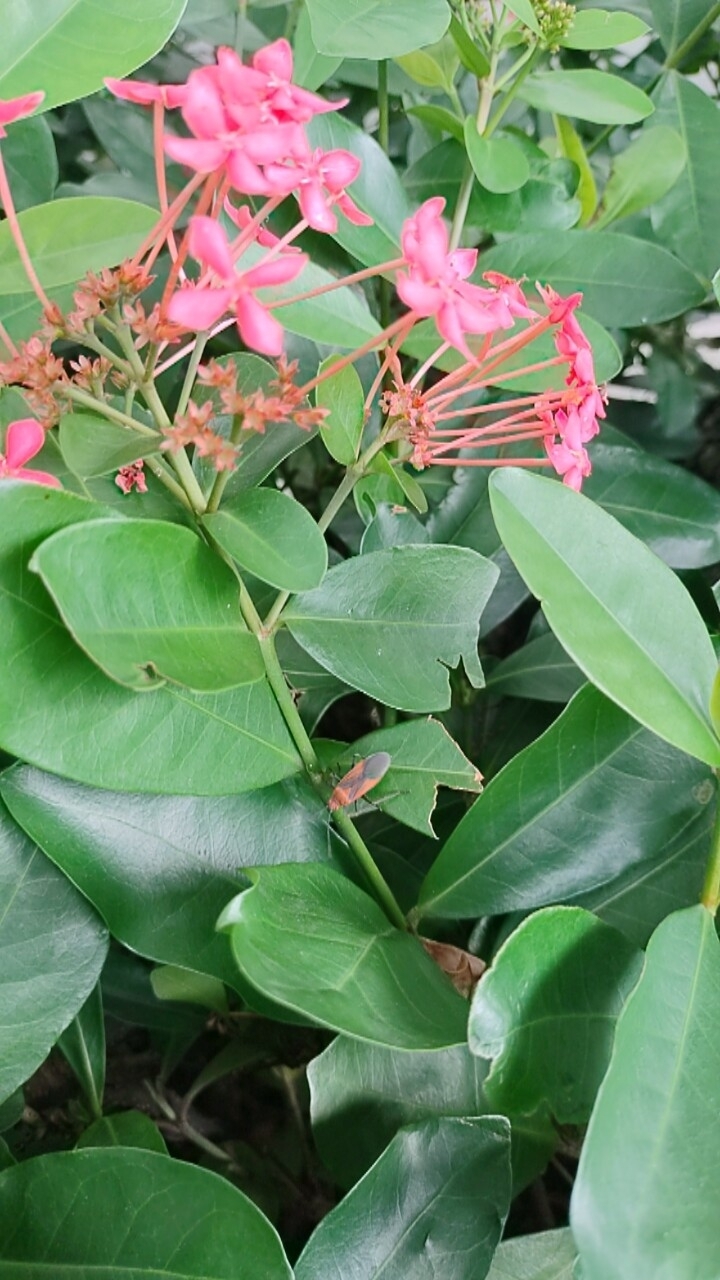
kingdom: Animalia
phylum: Arthropoda
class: Insecta
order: Hemiptera
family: Rhopalidae
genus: Leptocoris
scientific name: Leptocoris vicinus
